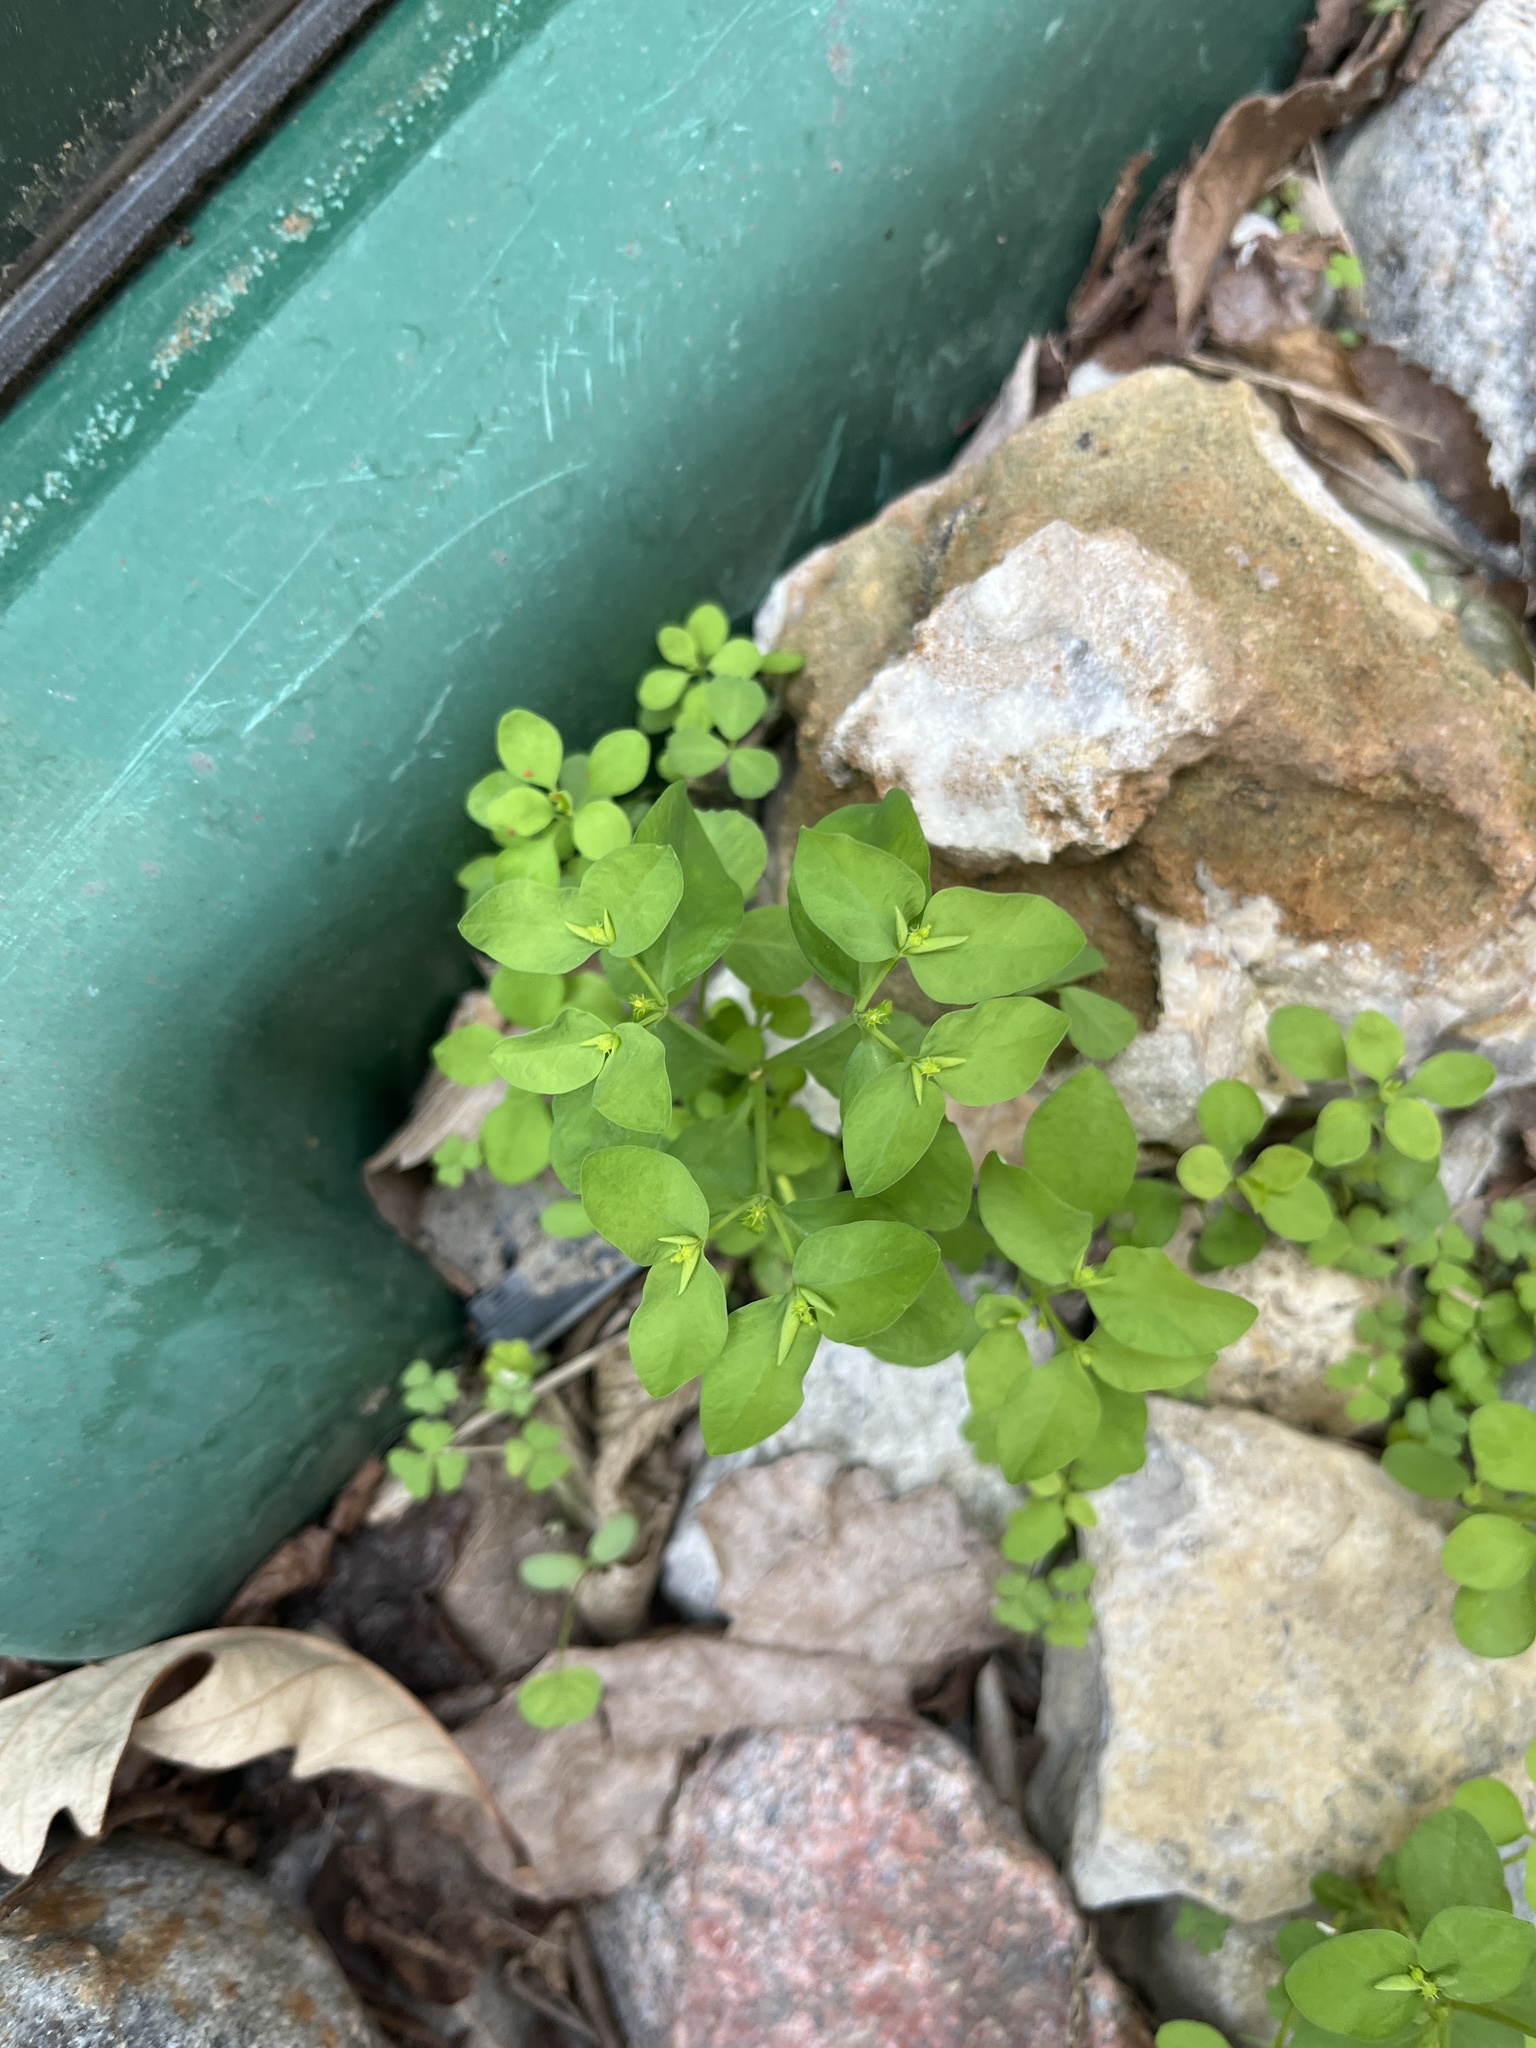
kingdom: Plantae
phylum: Tracheophyta
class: Magnoliopsida
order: Malpighiales
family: Euphorbiaceae
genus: Euphorbia
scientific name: Euphorbia peplus
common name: Petty spurge
